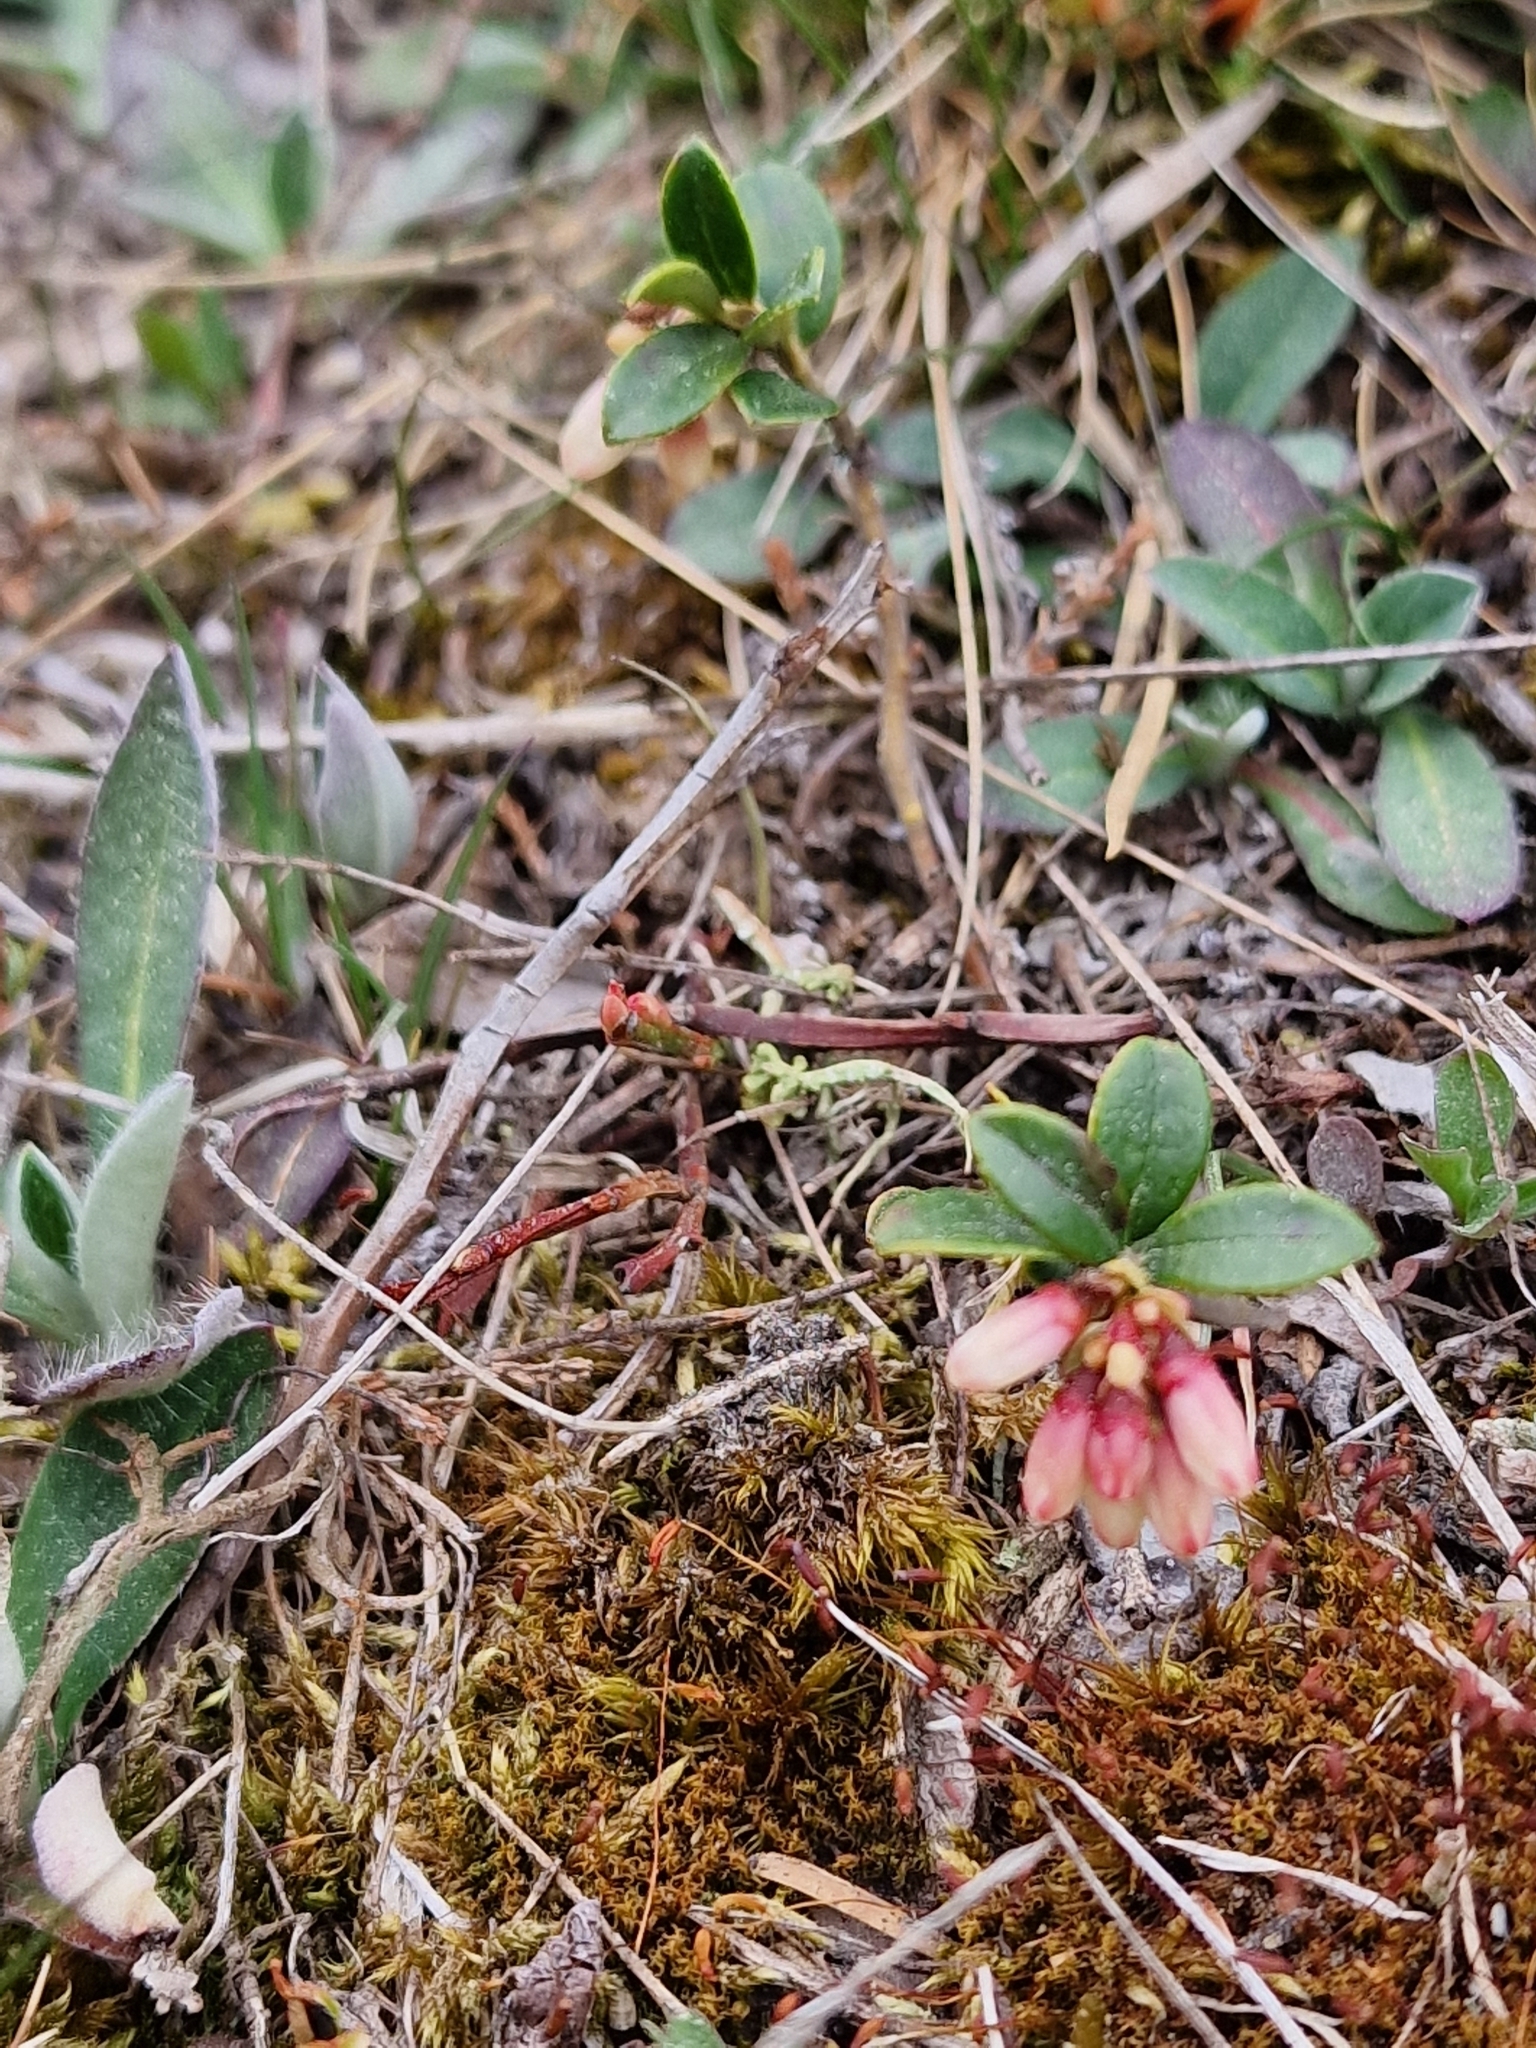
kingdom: Plantae
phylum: Tracheophyta
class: Magnoliopsida
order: Ericales
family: Ericaceae
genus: Arctostaphylos
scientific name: Arctostaphylos uva-ursi
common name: Bearberry
